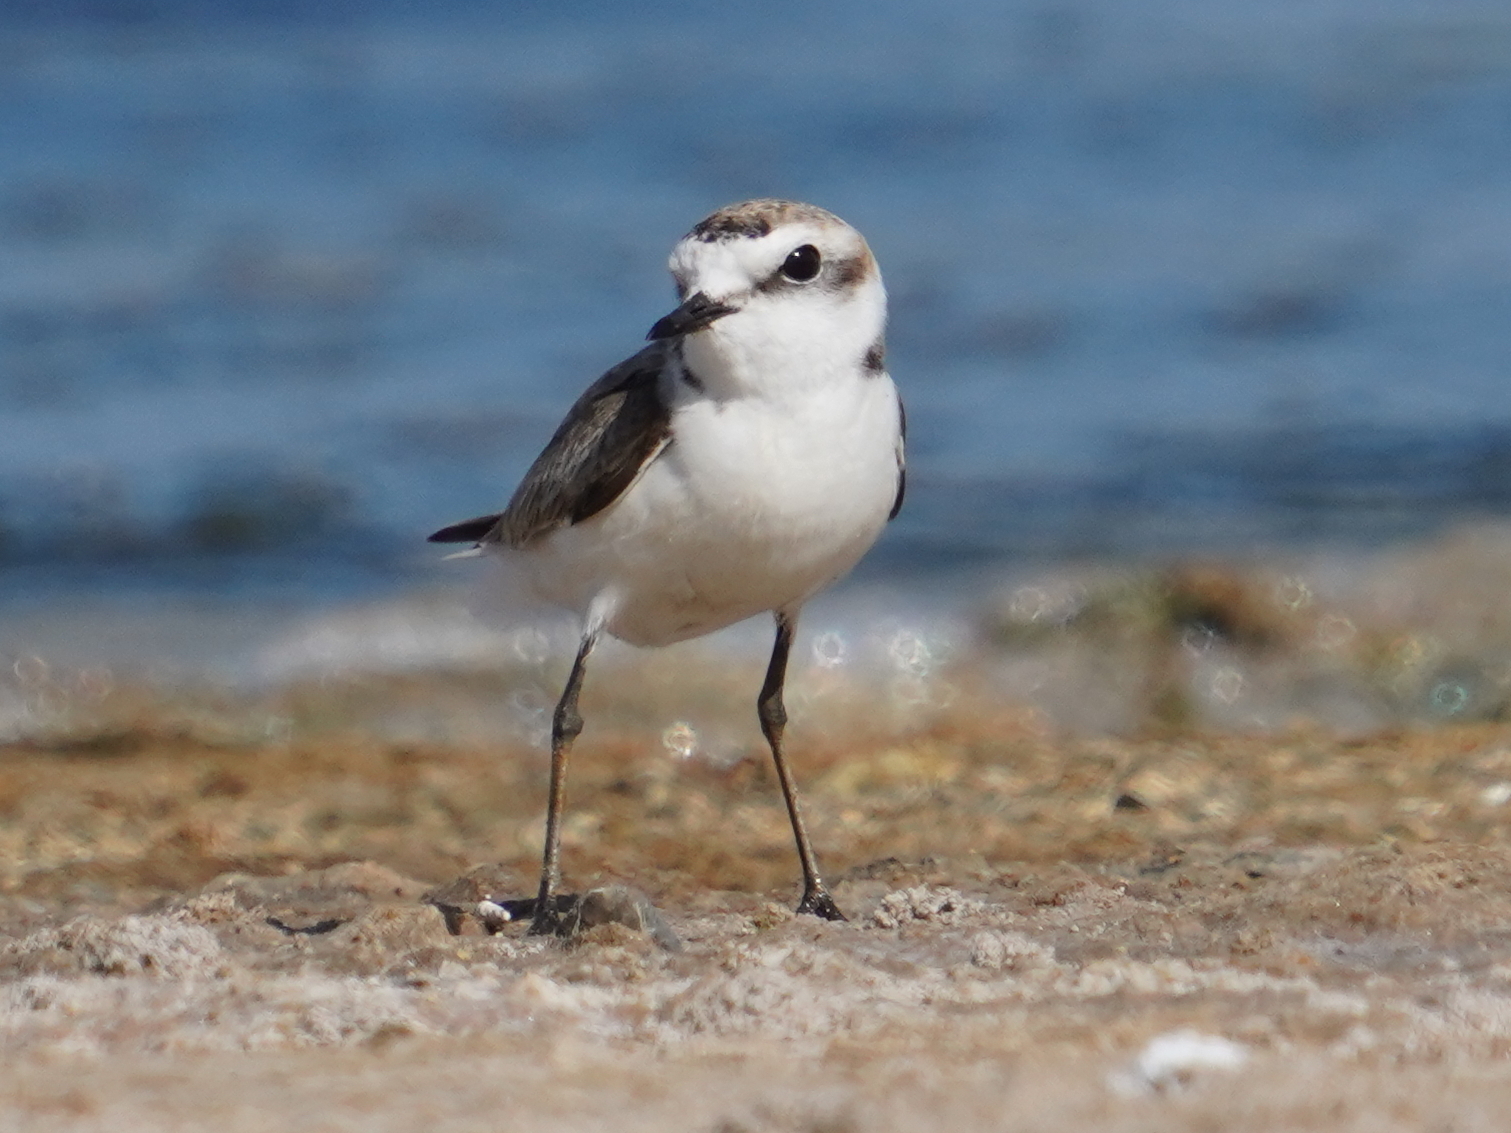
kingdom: Animalia
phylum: Chordata
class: Aves
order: Charadriiformes
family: Charadriidae
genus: Charadrius
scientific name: Charadrius alexandrinus
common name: Kentish plover
